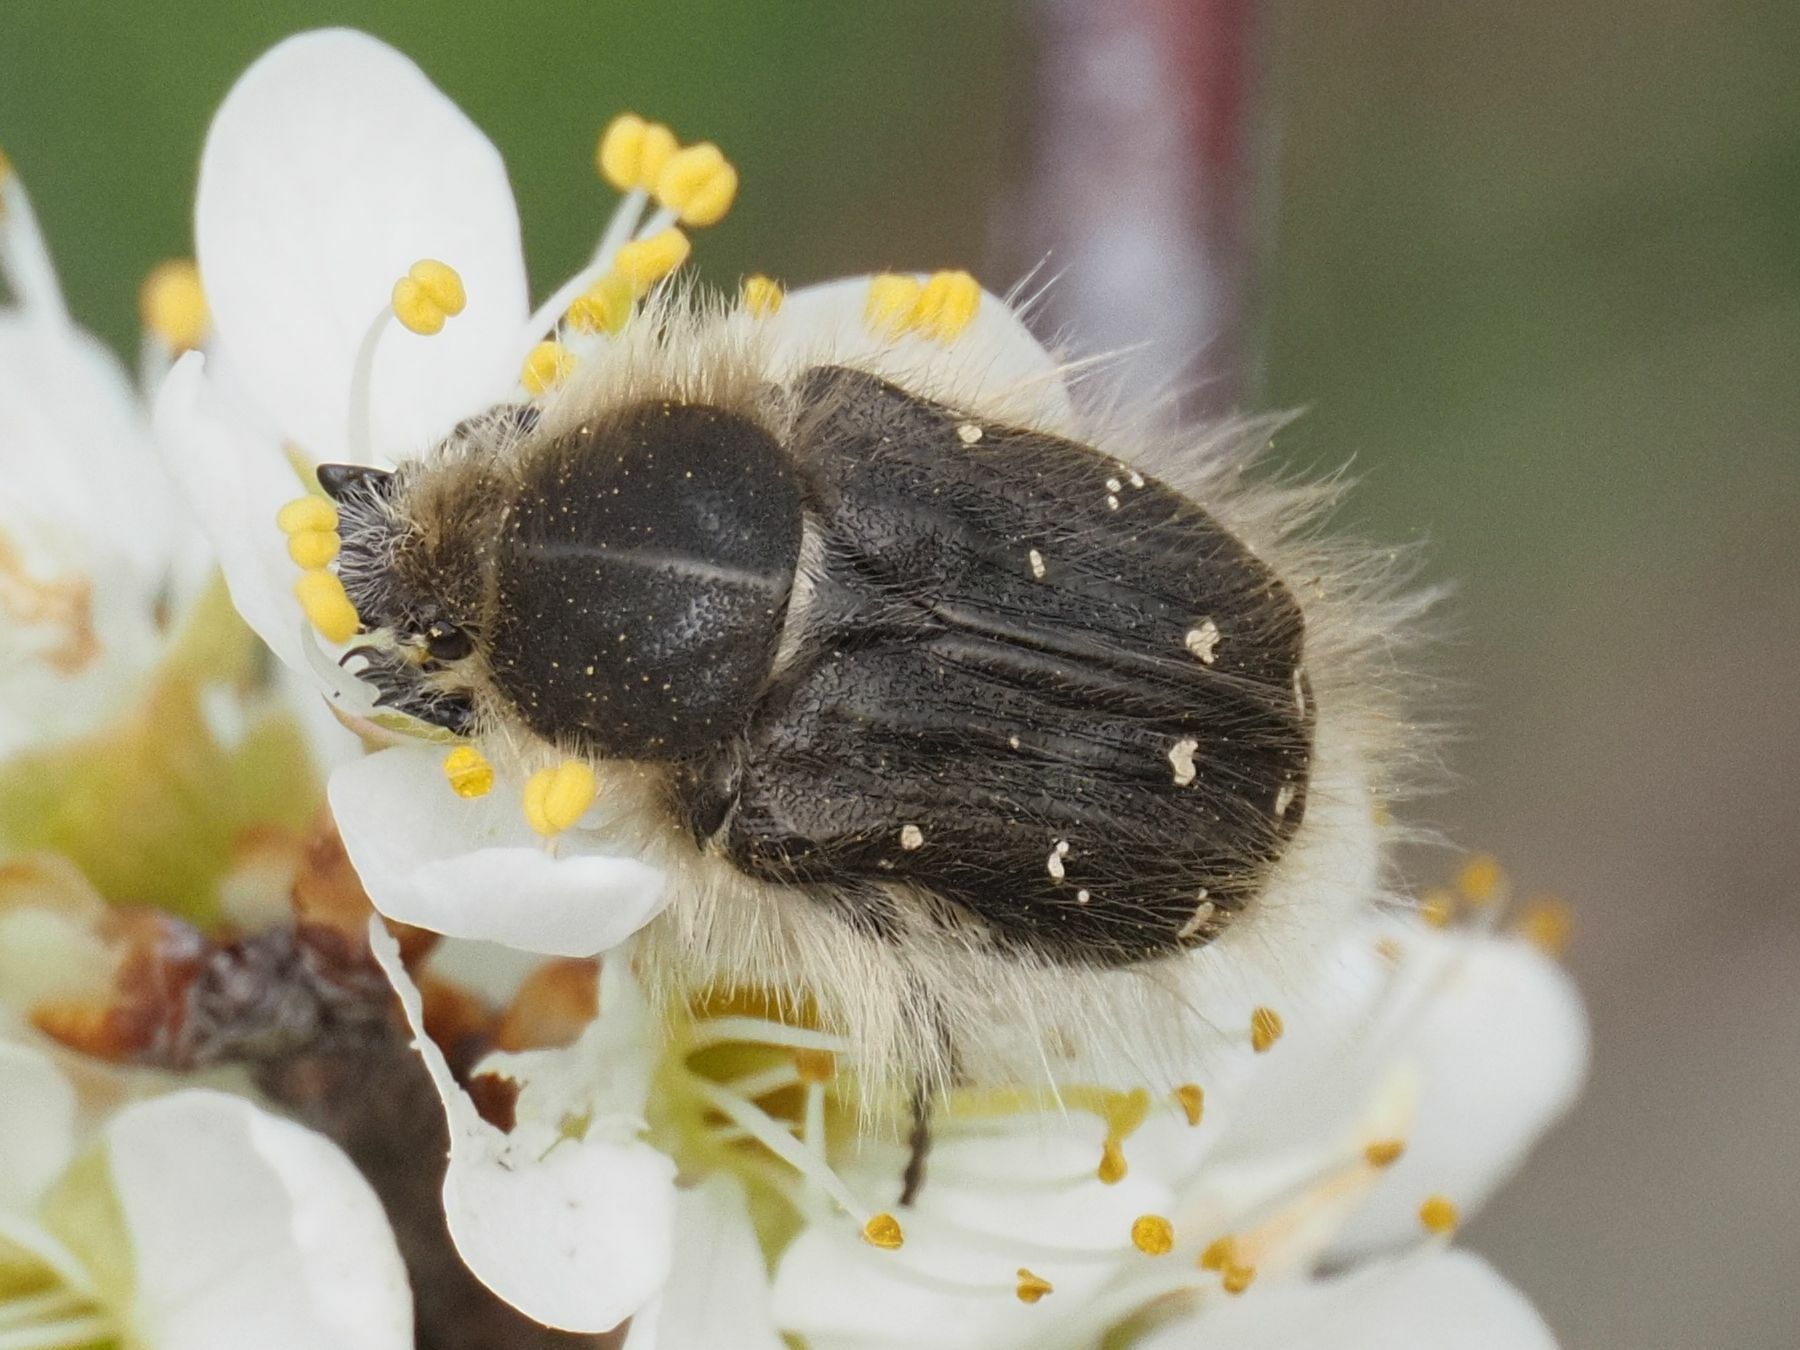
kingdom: Animalia
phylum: Arthropoda
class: Insecta
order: Coleoptera
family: Scarabaeidae
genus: Tropinota
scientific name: Tropinota hirta
